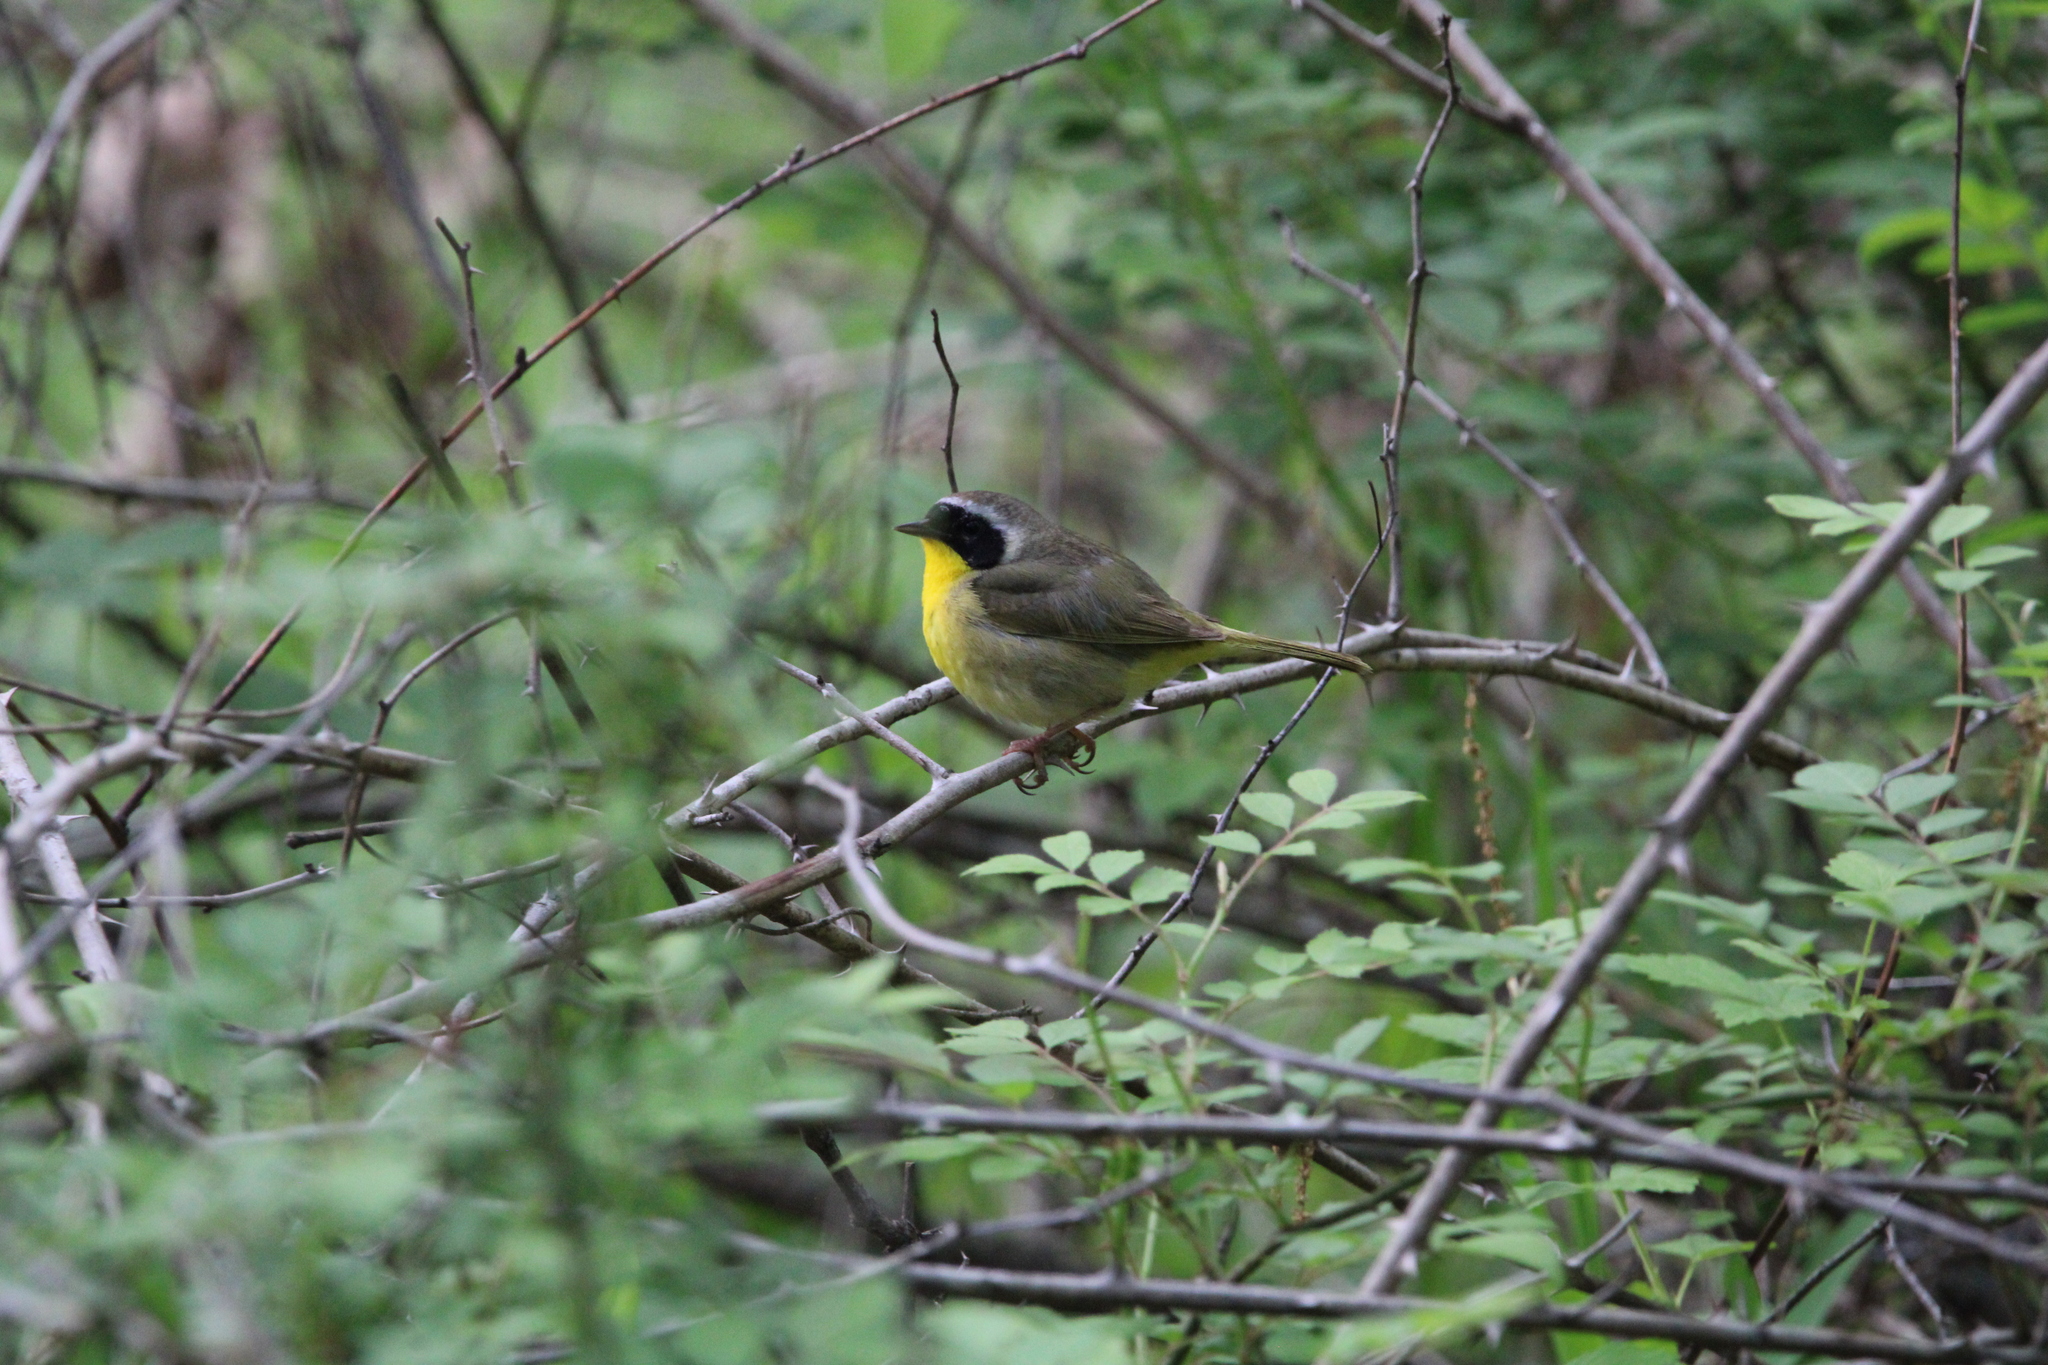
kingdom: Animalia
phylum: Chordata
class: Aves
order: Passeriformes
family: Parulidae
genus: Geothlypis
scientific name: Geothlypis trichas
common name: Common yellowthroat
